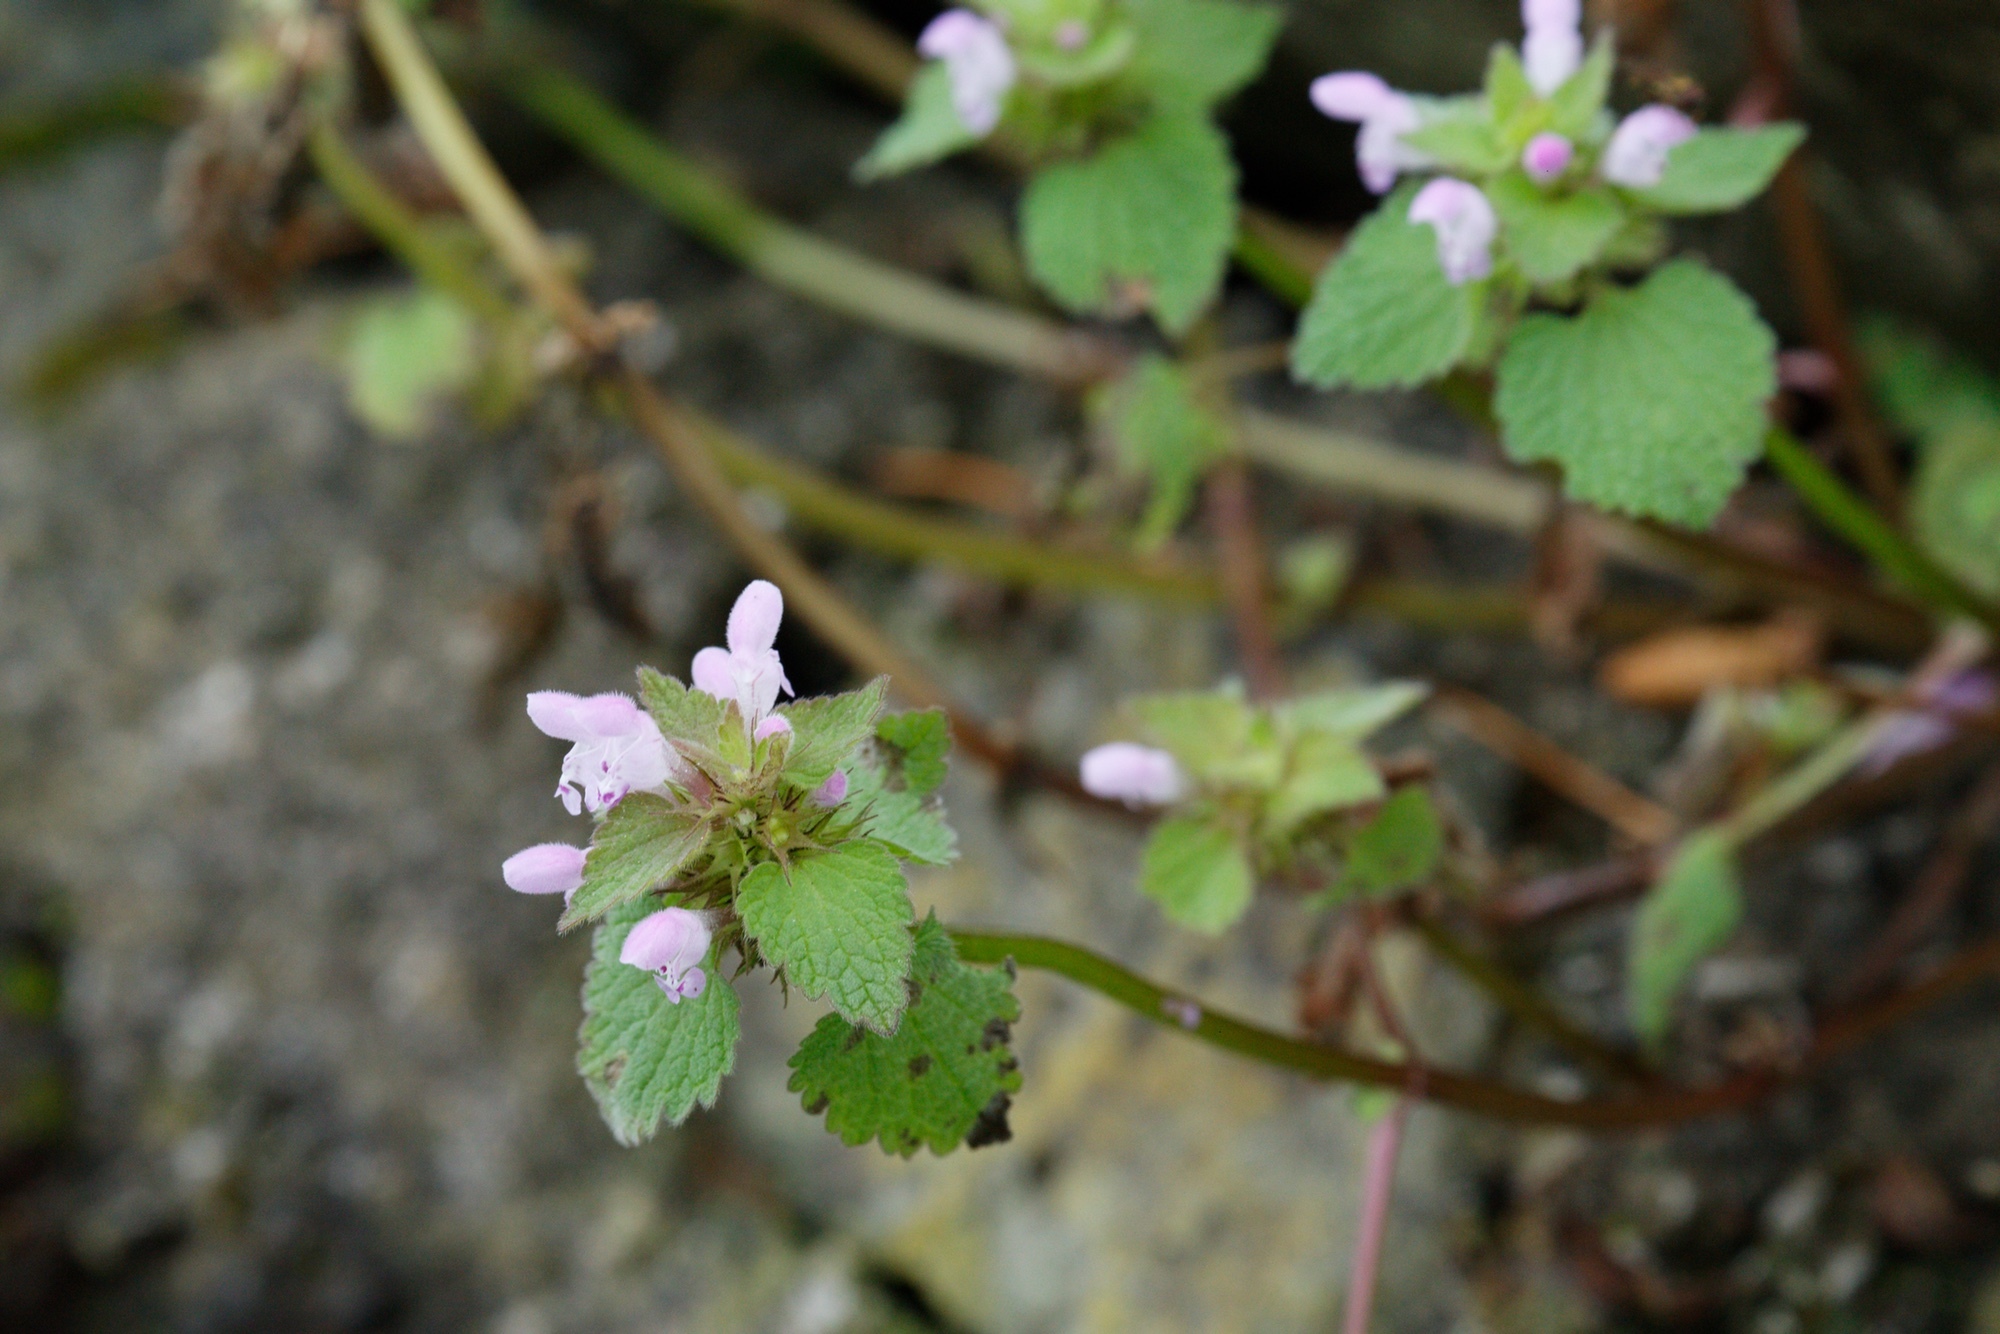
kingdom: Plantae
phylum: Tracheophyta
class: Magnoliopsida
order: Lamiales
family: Lamiaceae
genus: Lamium
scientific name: Lamium purpureum
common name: Red dead-nettle
